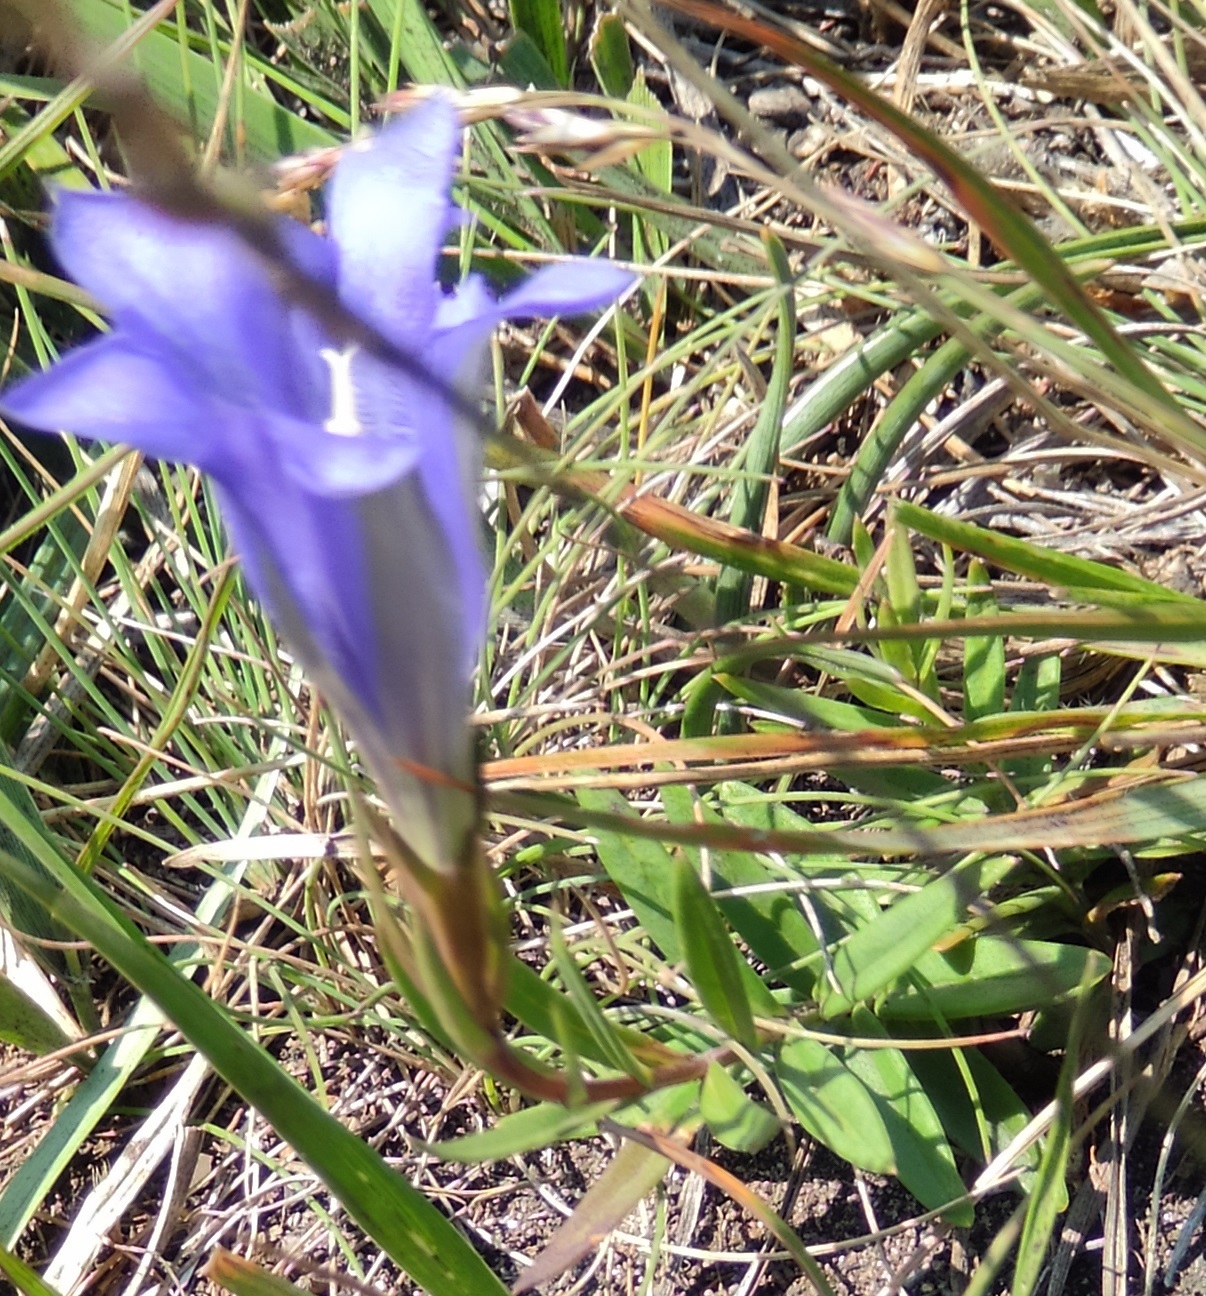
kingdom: Plantae
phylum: Tracheophyta
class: Magnoliopsida
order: Gentianales
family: Gentianaceae
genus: Gentiana
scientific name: Gentiana pneumonanthe
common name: Marsh gentian
